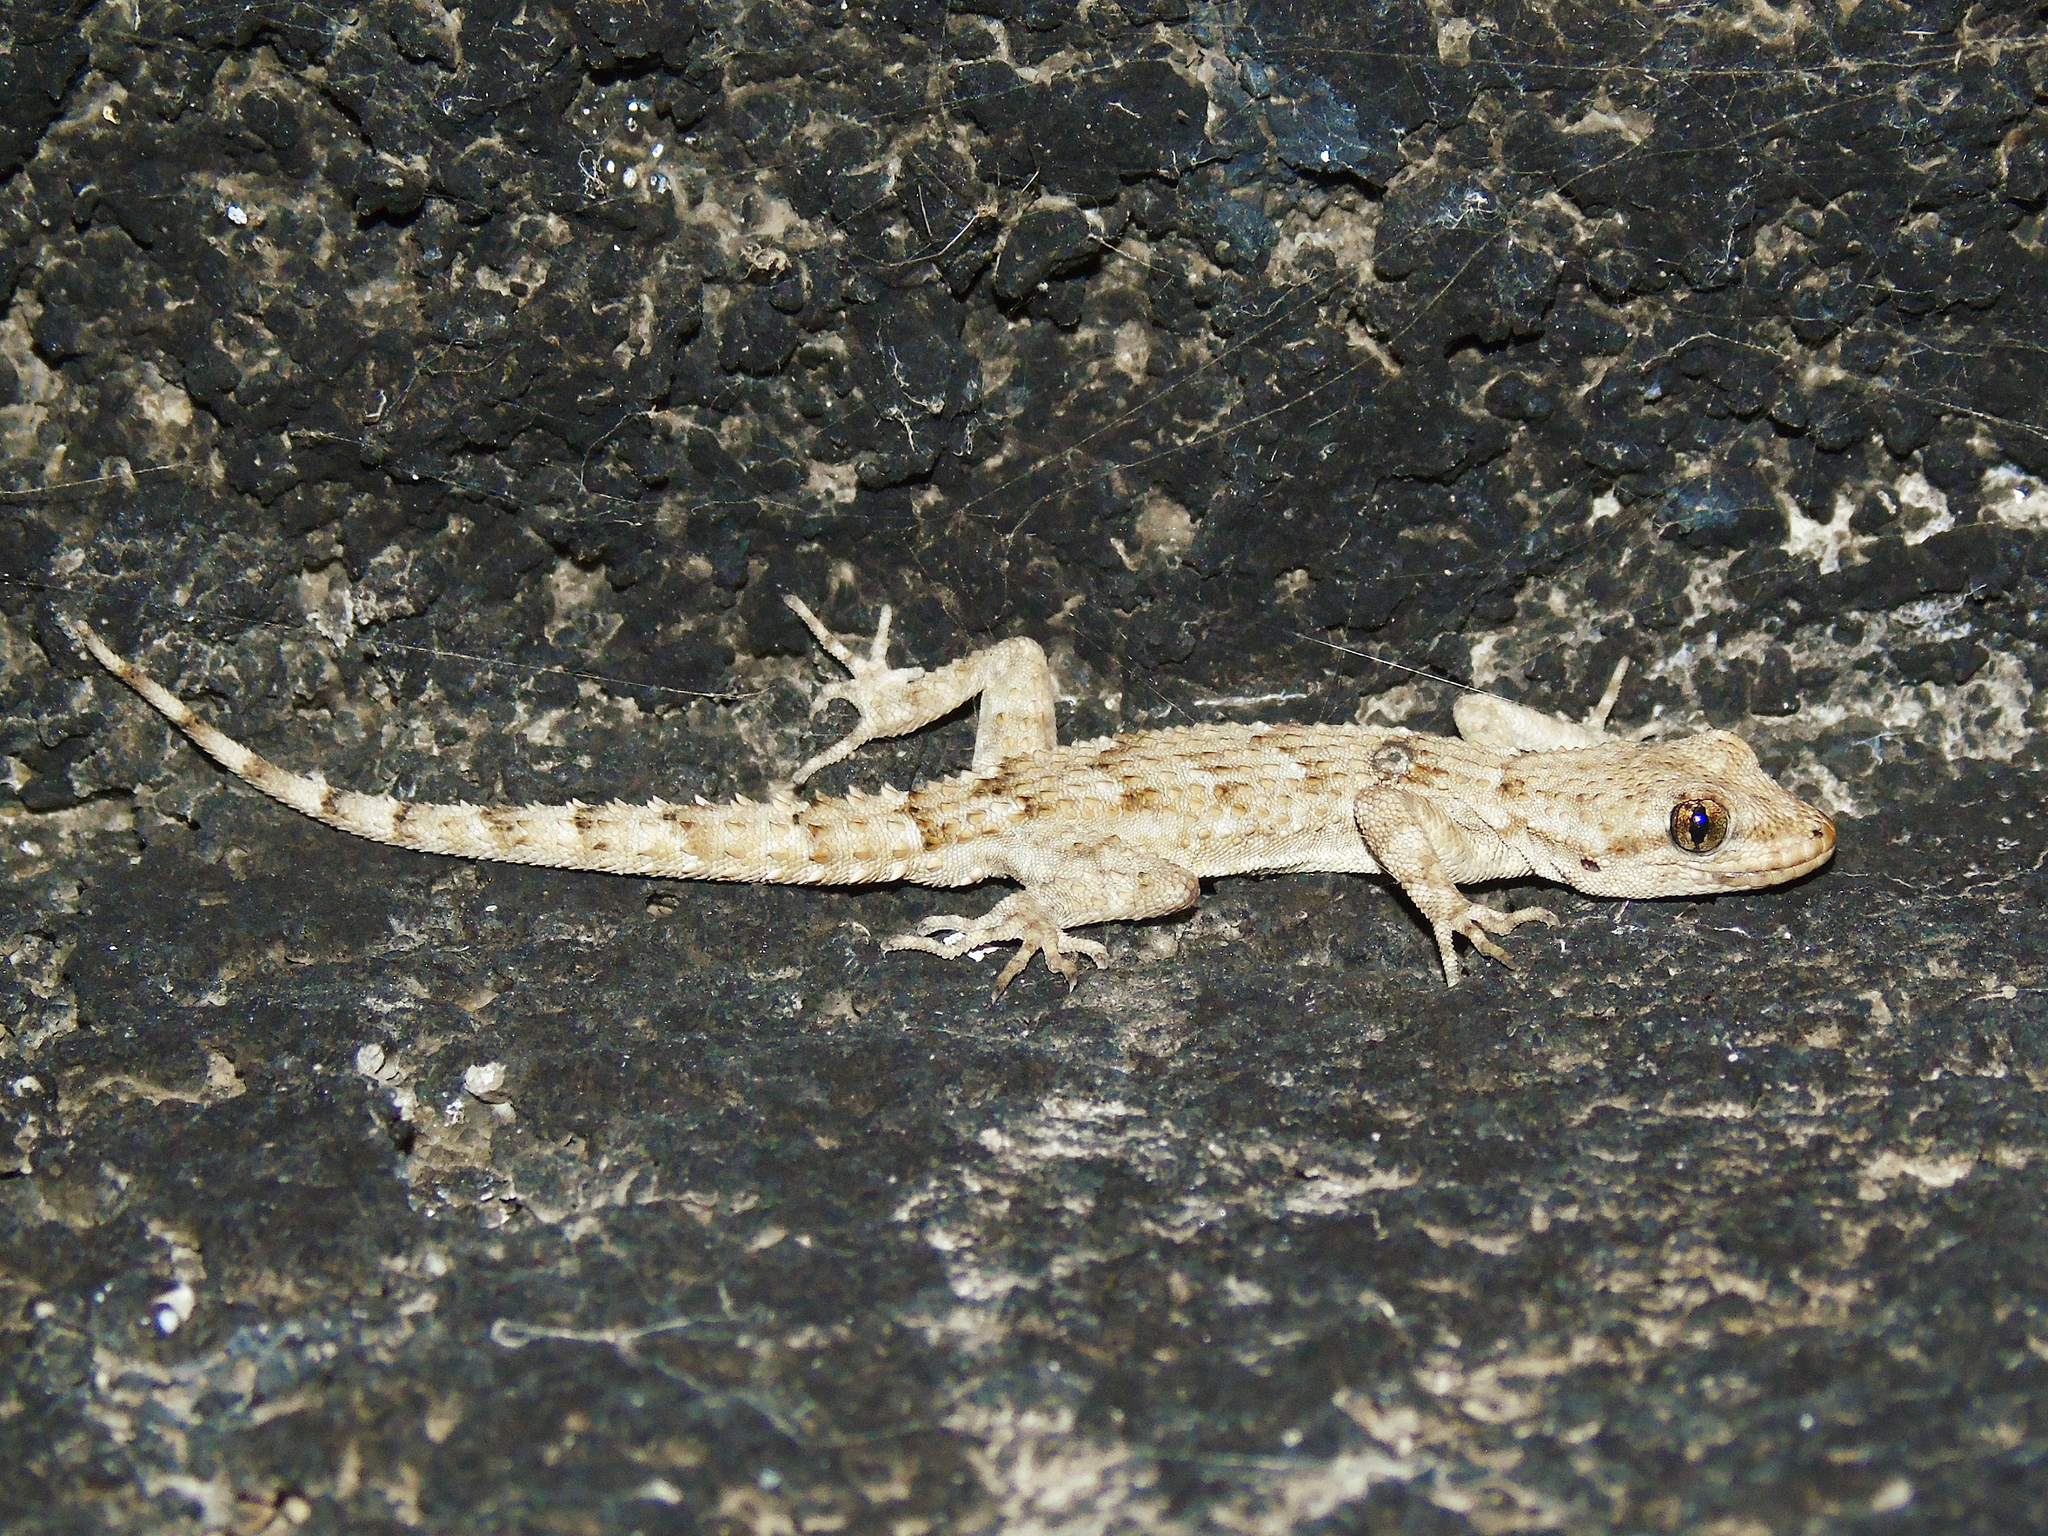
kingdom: Animalia
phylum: Chordata
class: Squamata
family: Gekkonidae
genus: Mediodactylus
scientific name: Mediodactylus kotschyi
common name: Kotschy's gecko
